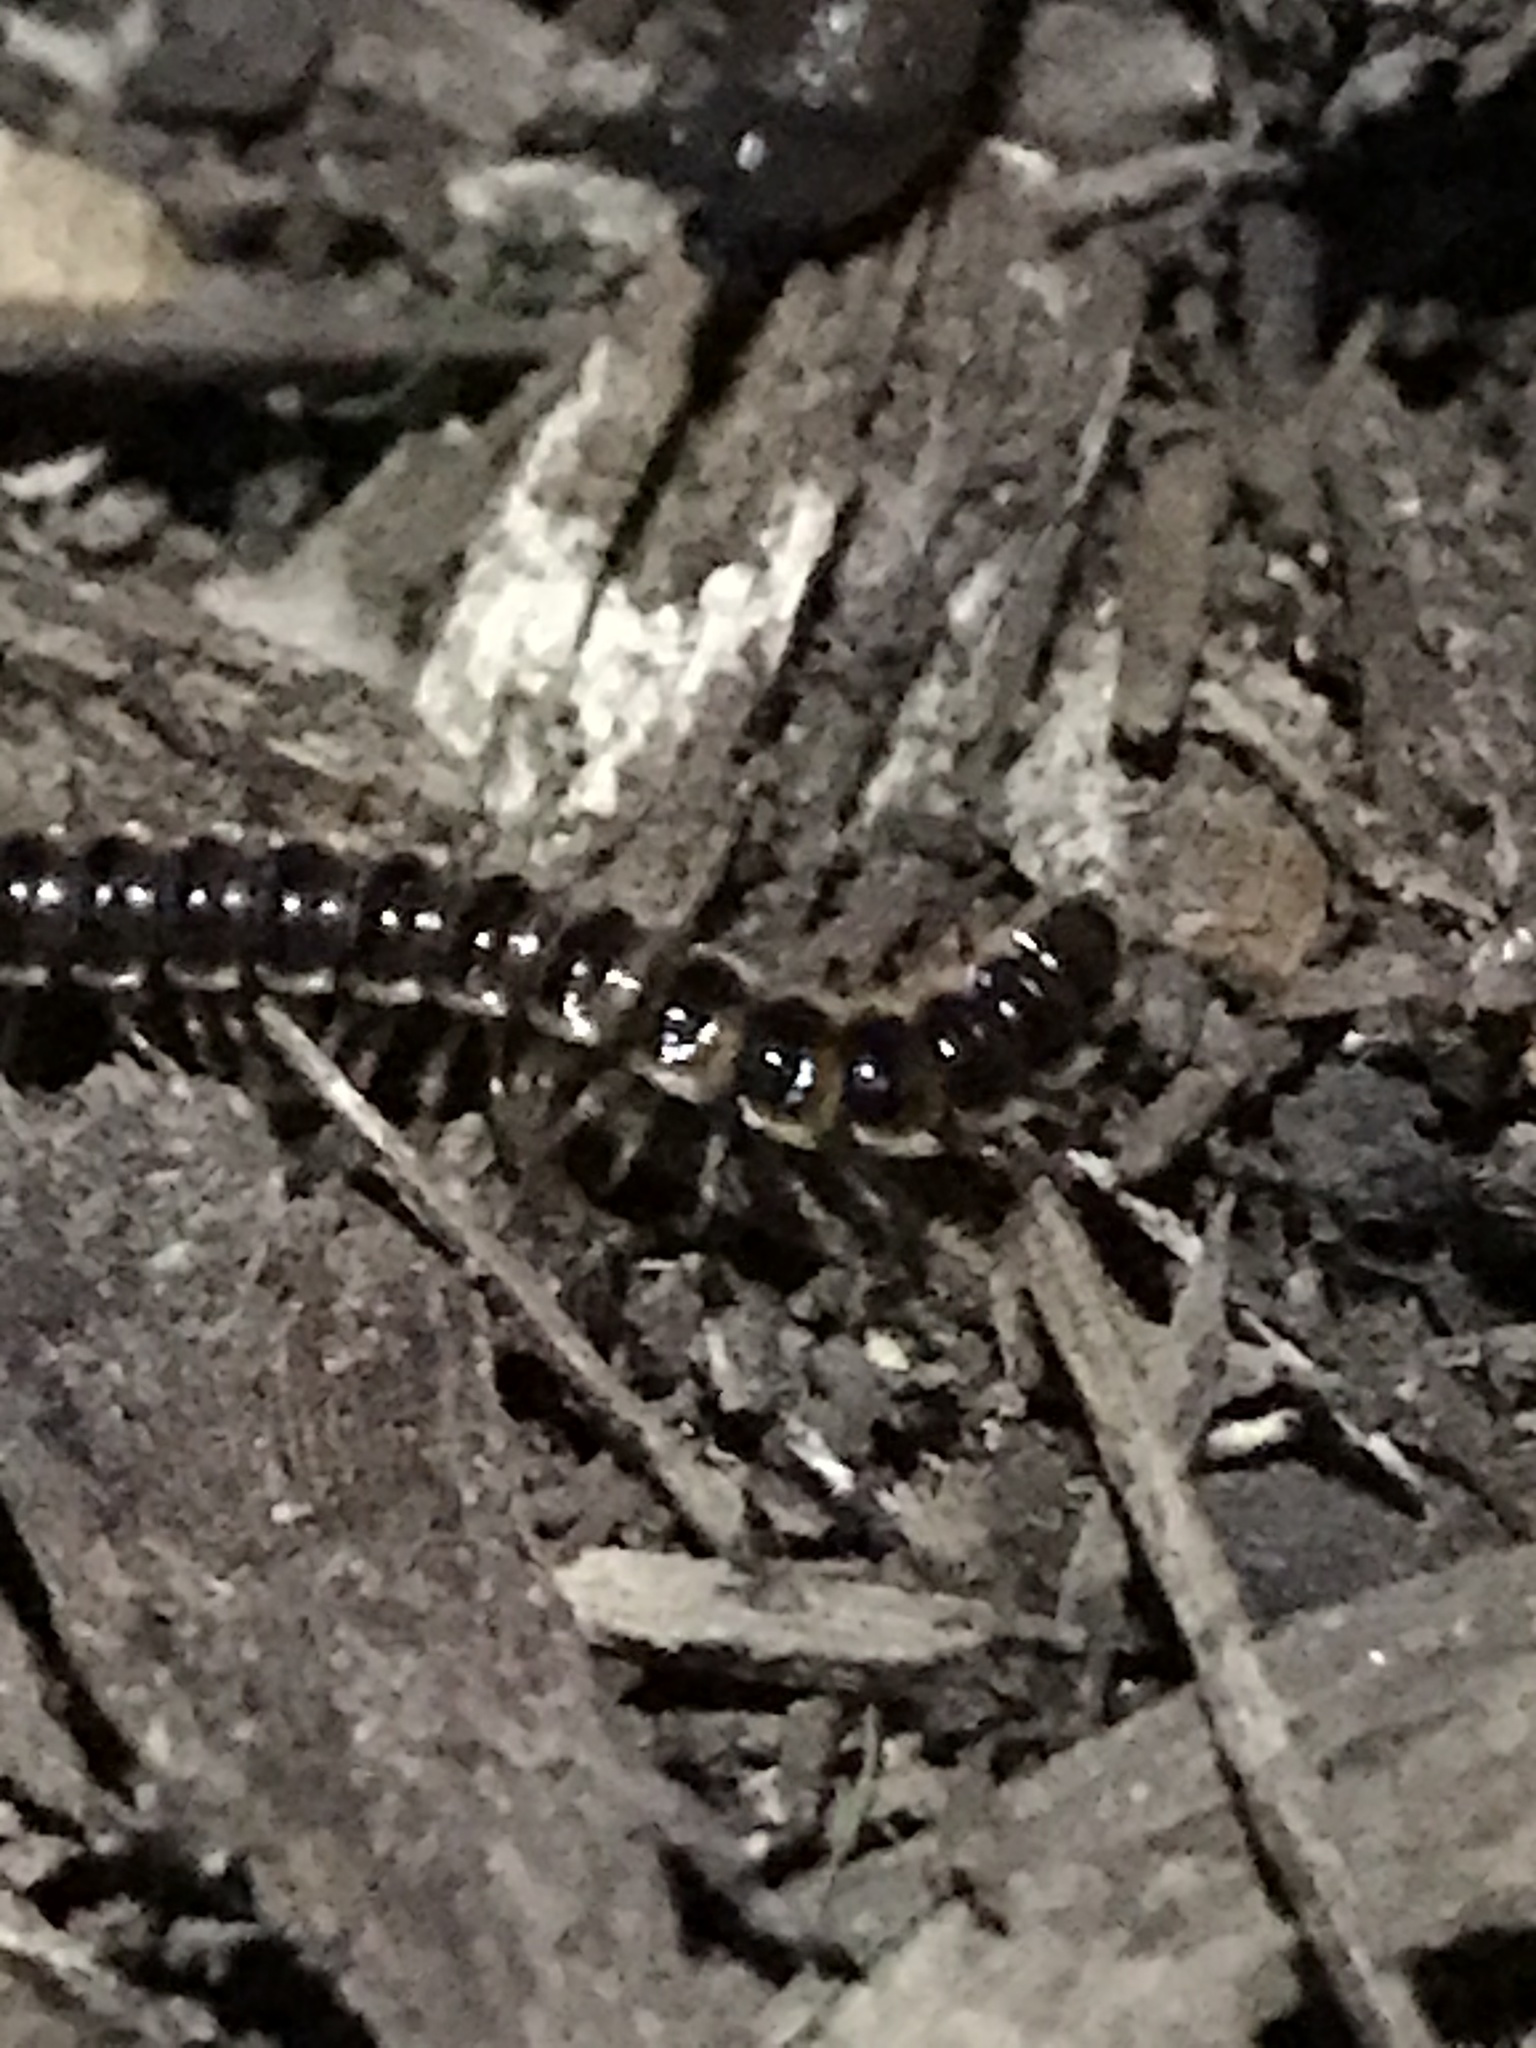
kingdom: Animalia
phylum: Arthropoda
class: Diplopoda
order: Polydesmida
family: Paradoxosomatidae
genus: Oxidus
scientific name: Oxidus gracilis
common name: Greenhouse millipede
